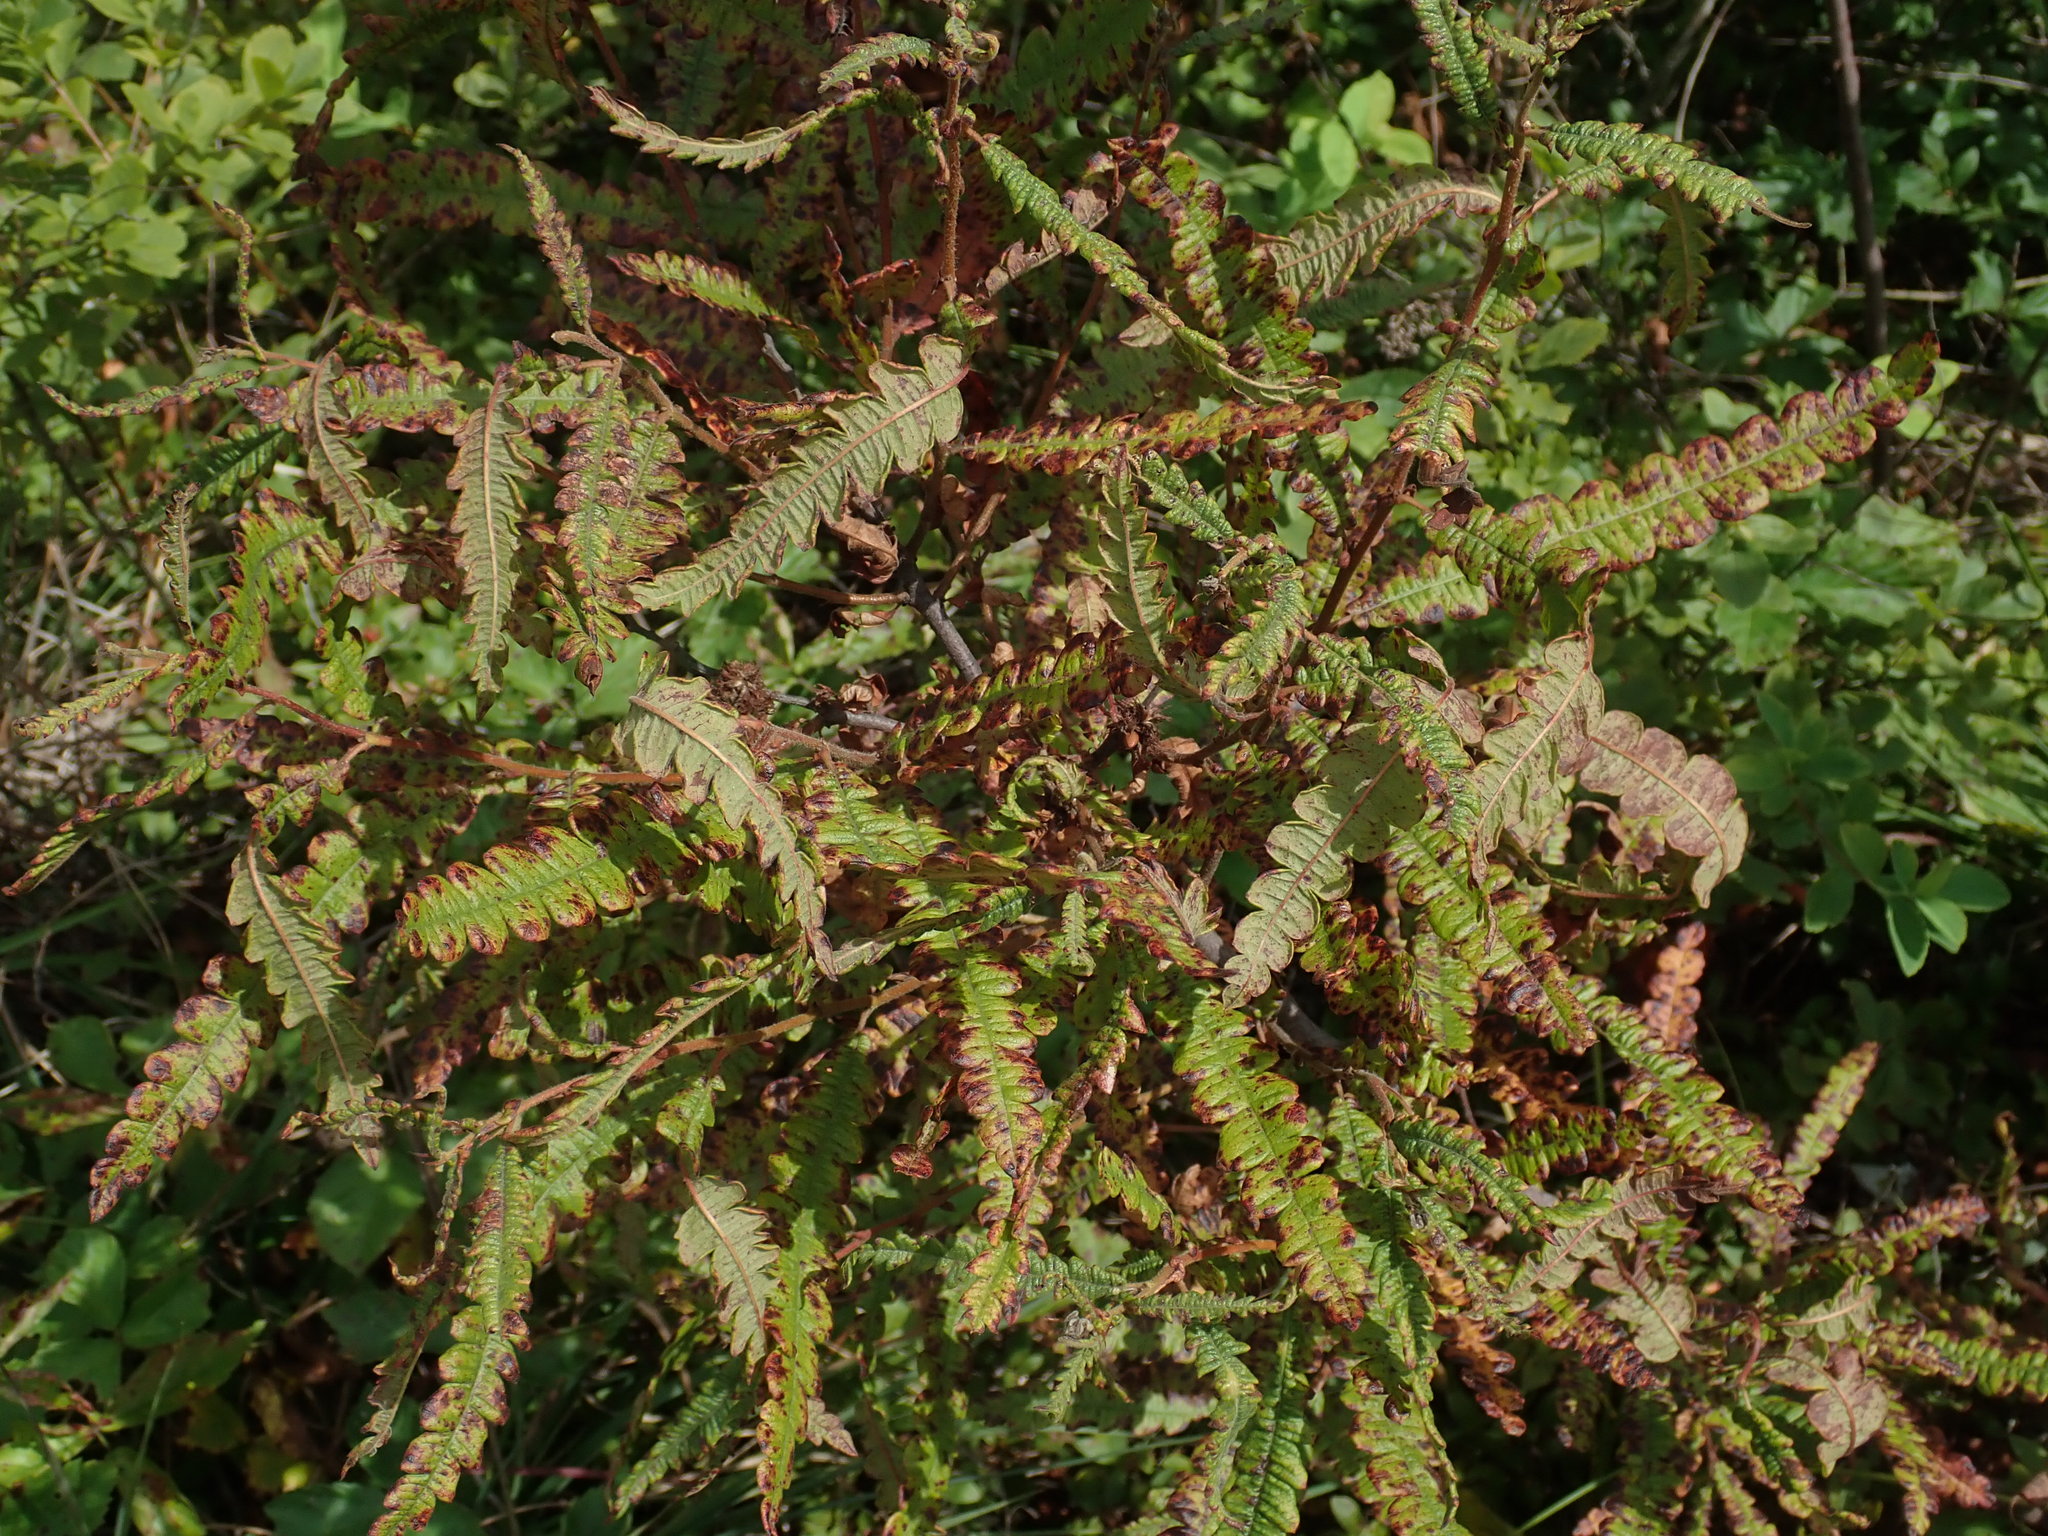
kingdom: Plantae
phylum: Tracheophyta
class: Magnoliopsida
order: Fagales
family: Myricaceae
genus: Comptonia
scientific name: Comptonia peregrina
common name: Sweet-fern
